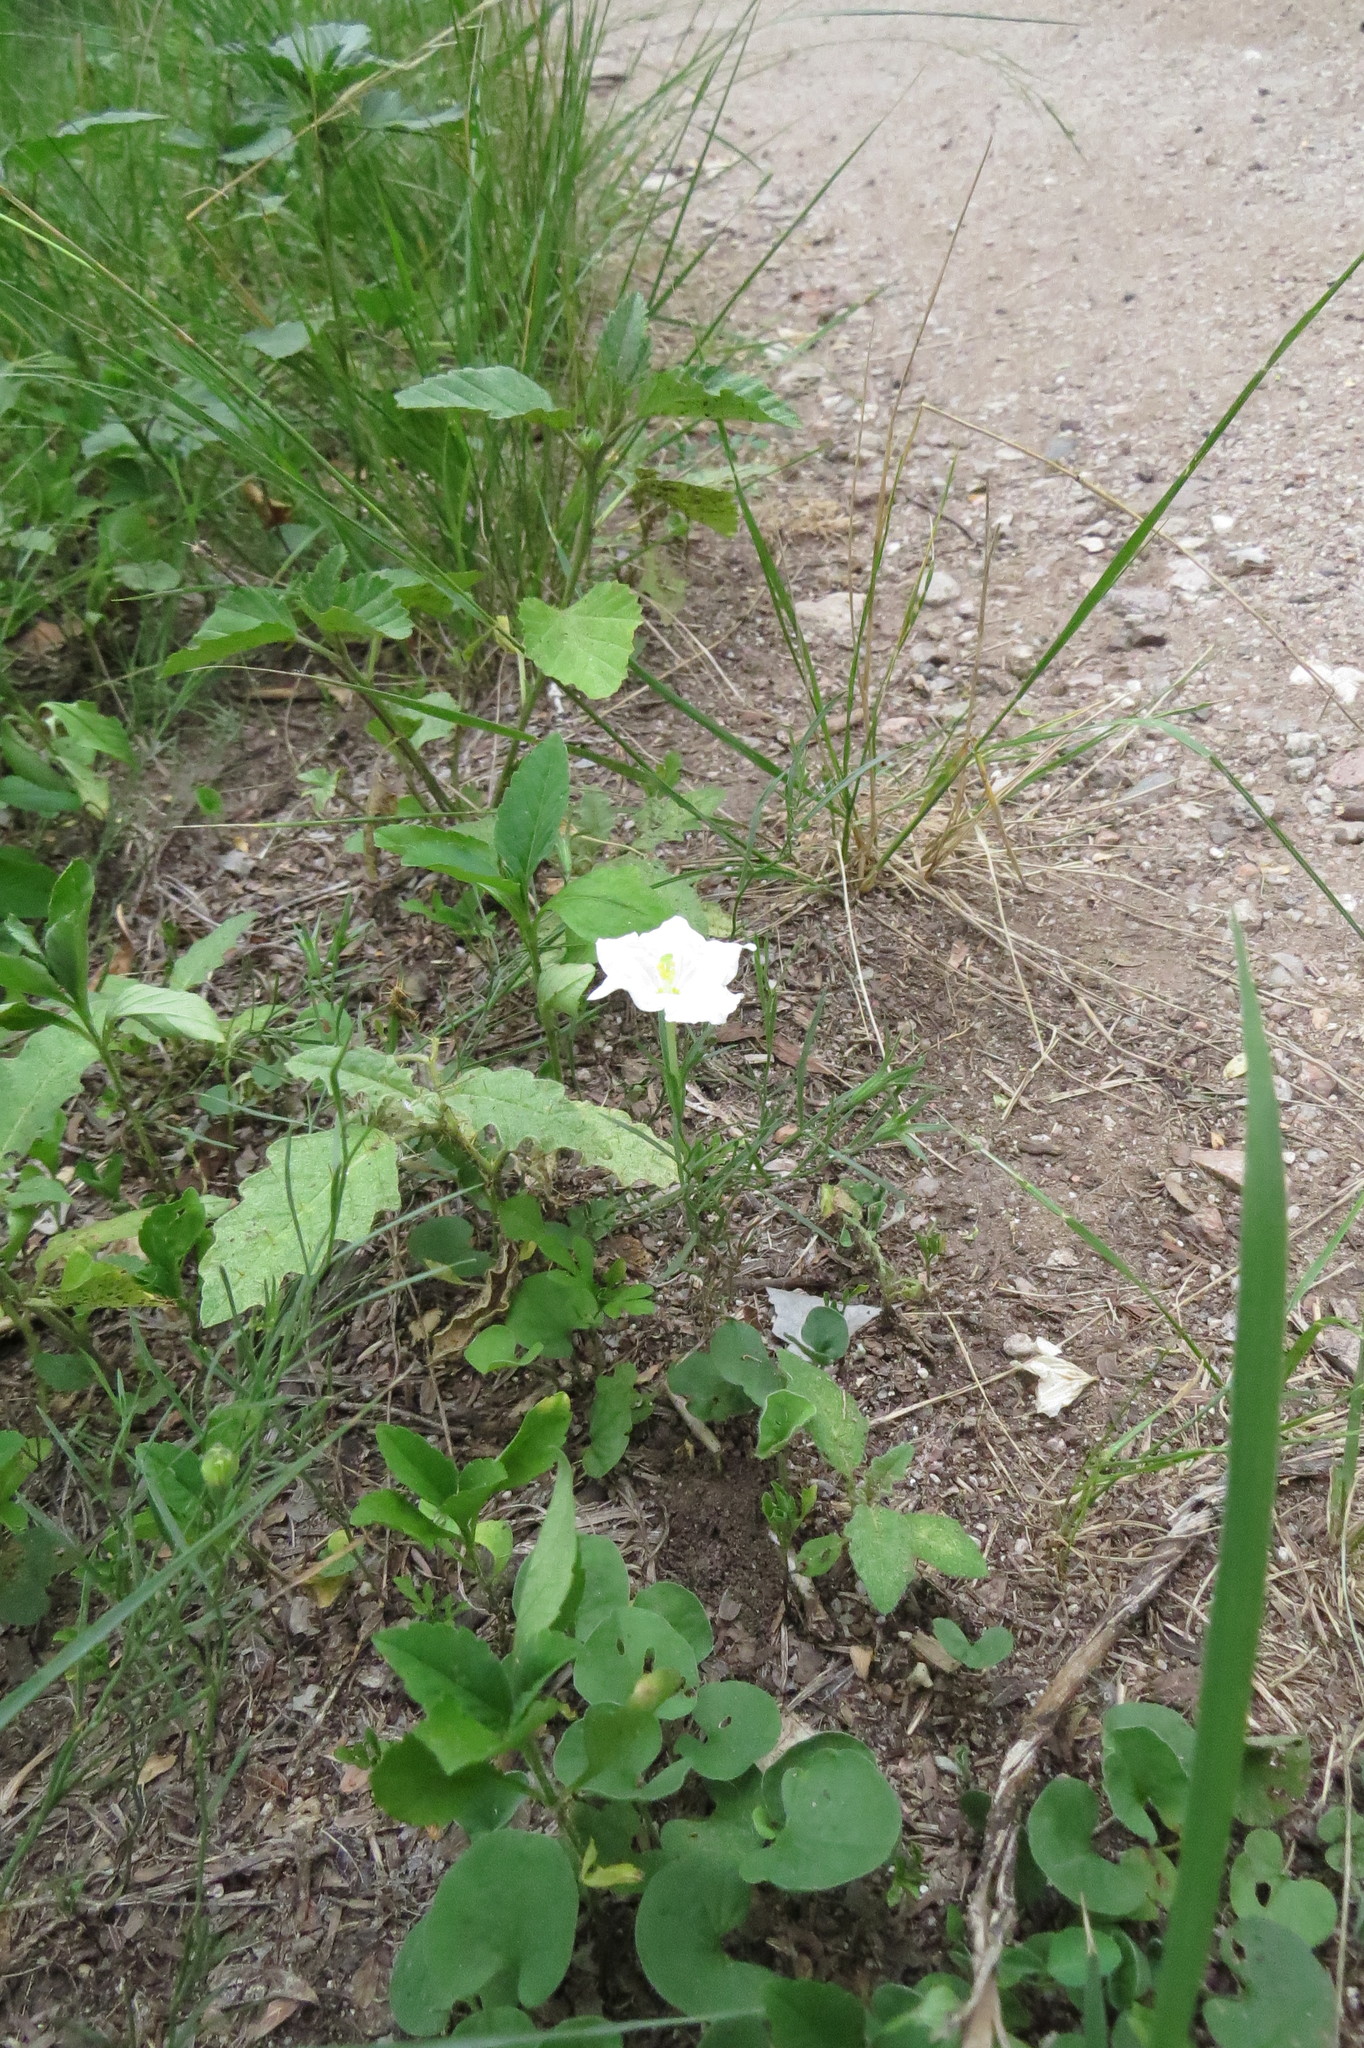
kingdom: Plantae
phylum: Tracheophyta
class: Magnoliopsida
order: Solanales
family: Solanaceae
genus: Nierembergia
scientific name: Nierembergia rigida
